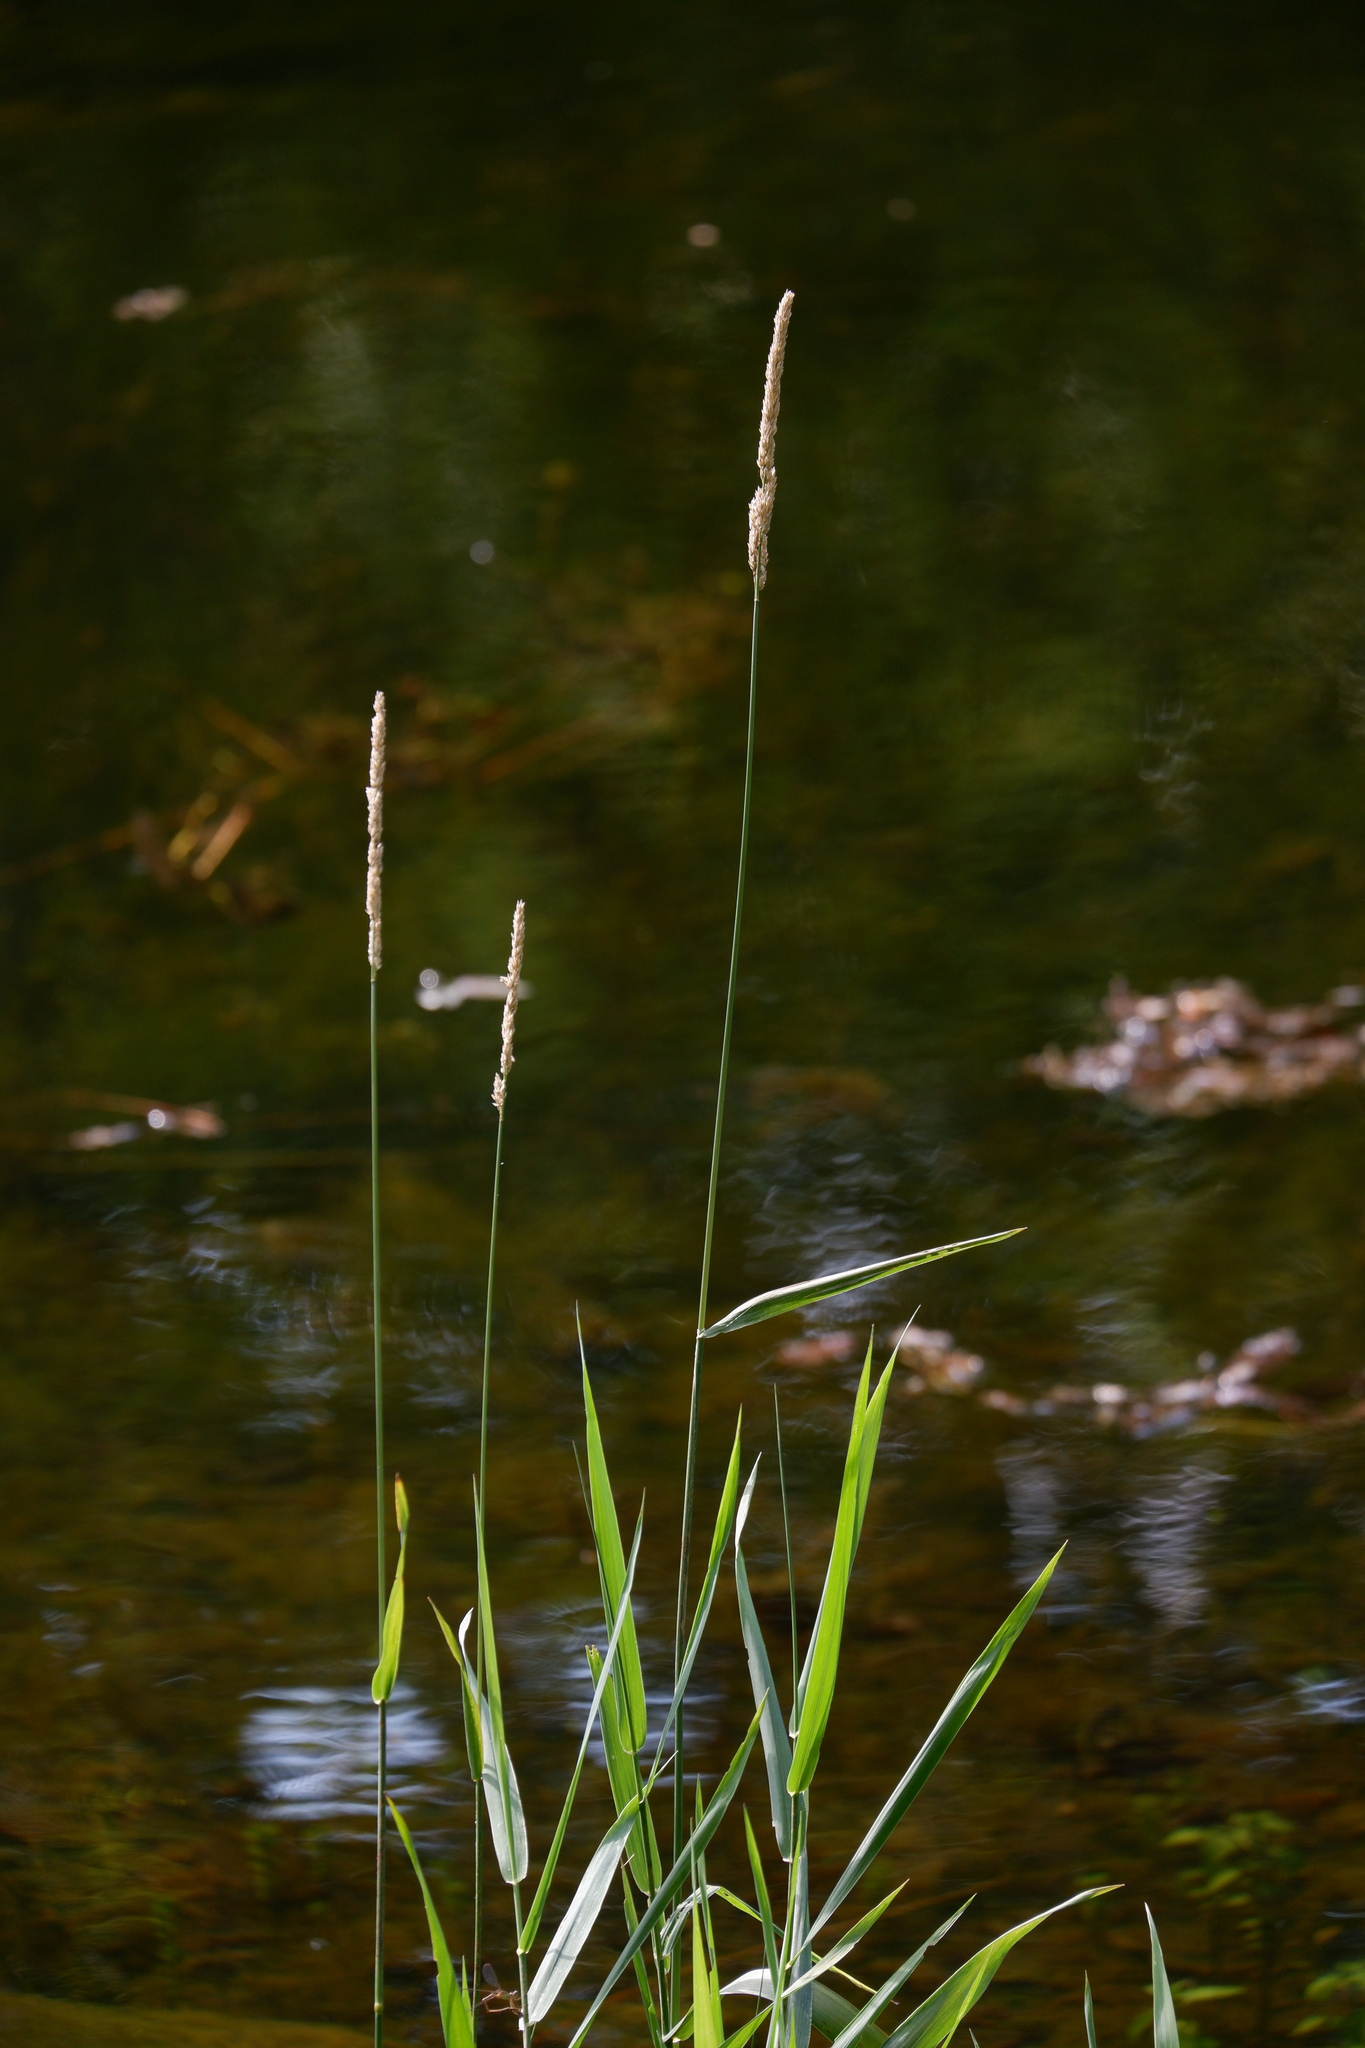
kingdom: Plantae
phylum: Tracheophyta
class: Liliopsida
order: Poales
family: Poaceae
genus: Phalaris
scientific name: Phalaris arundinacea
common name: Reed canary-grass
